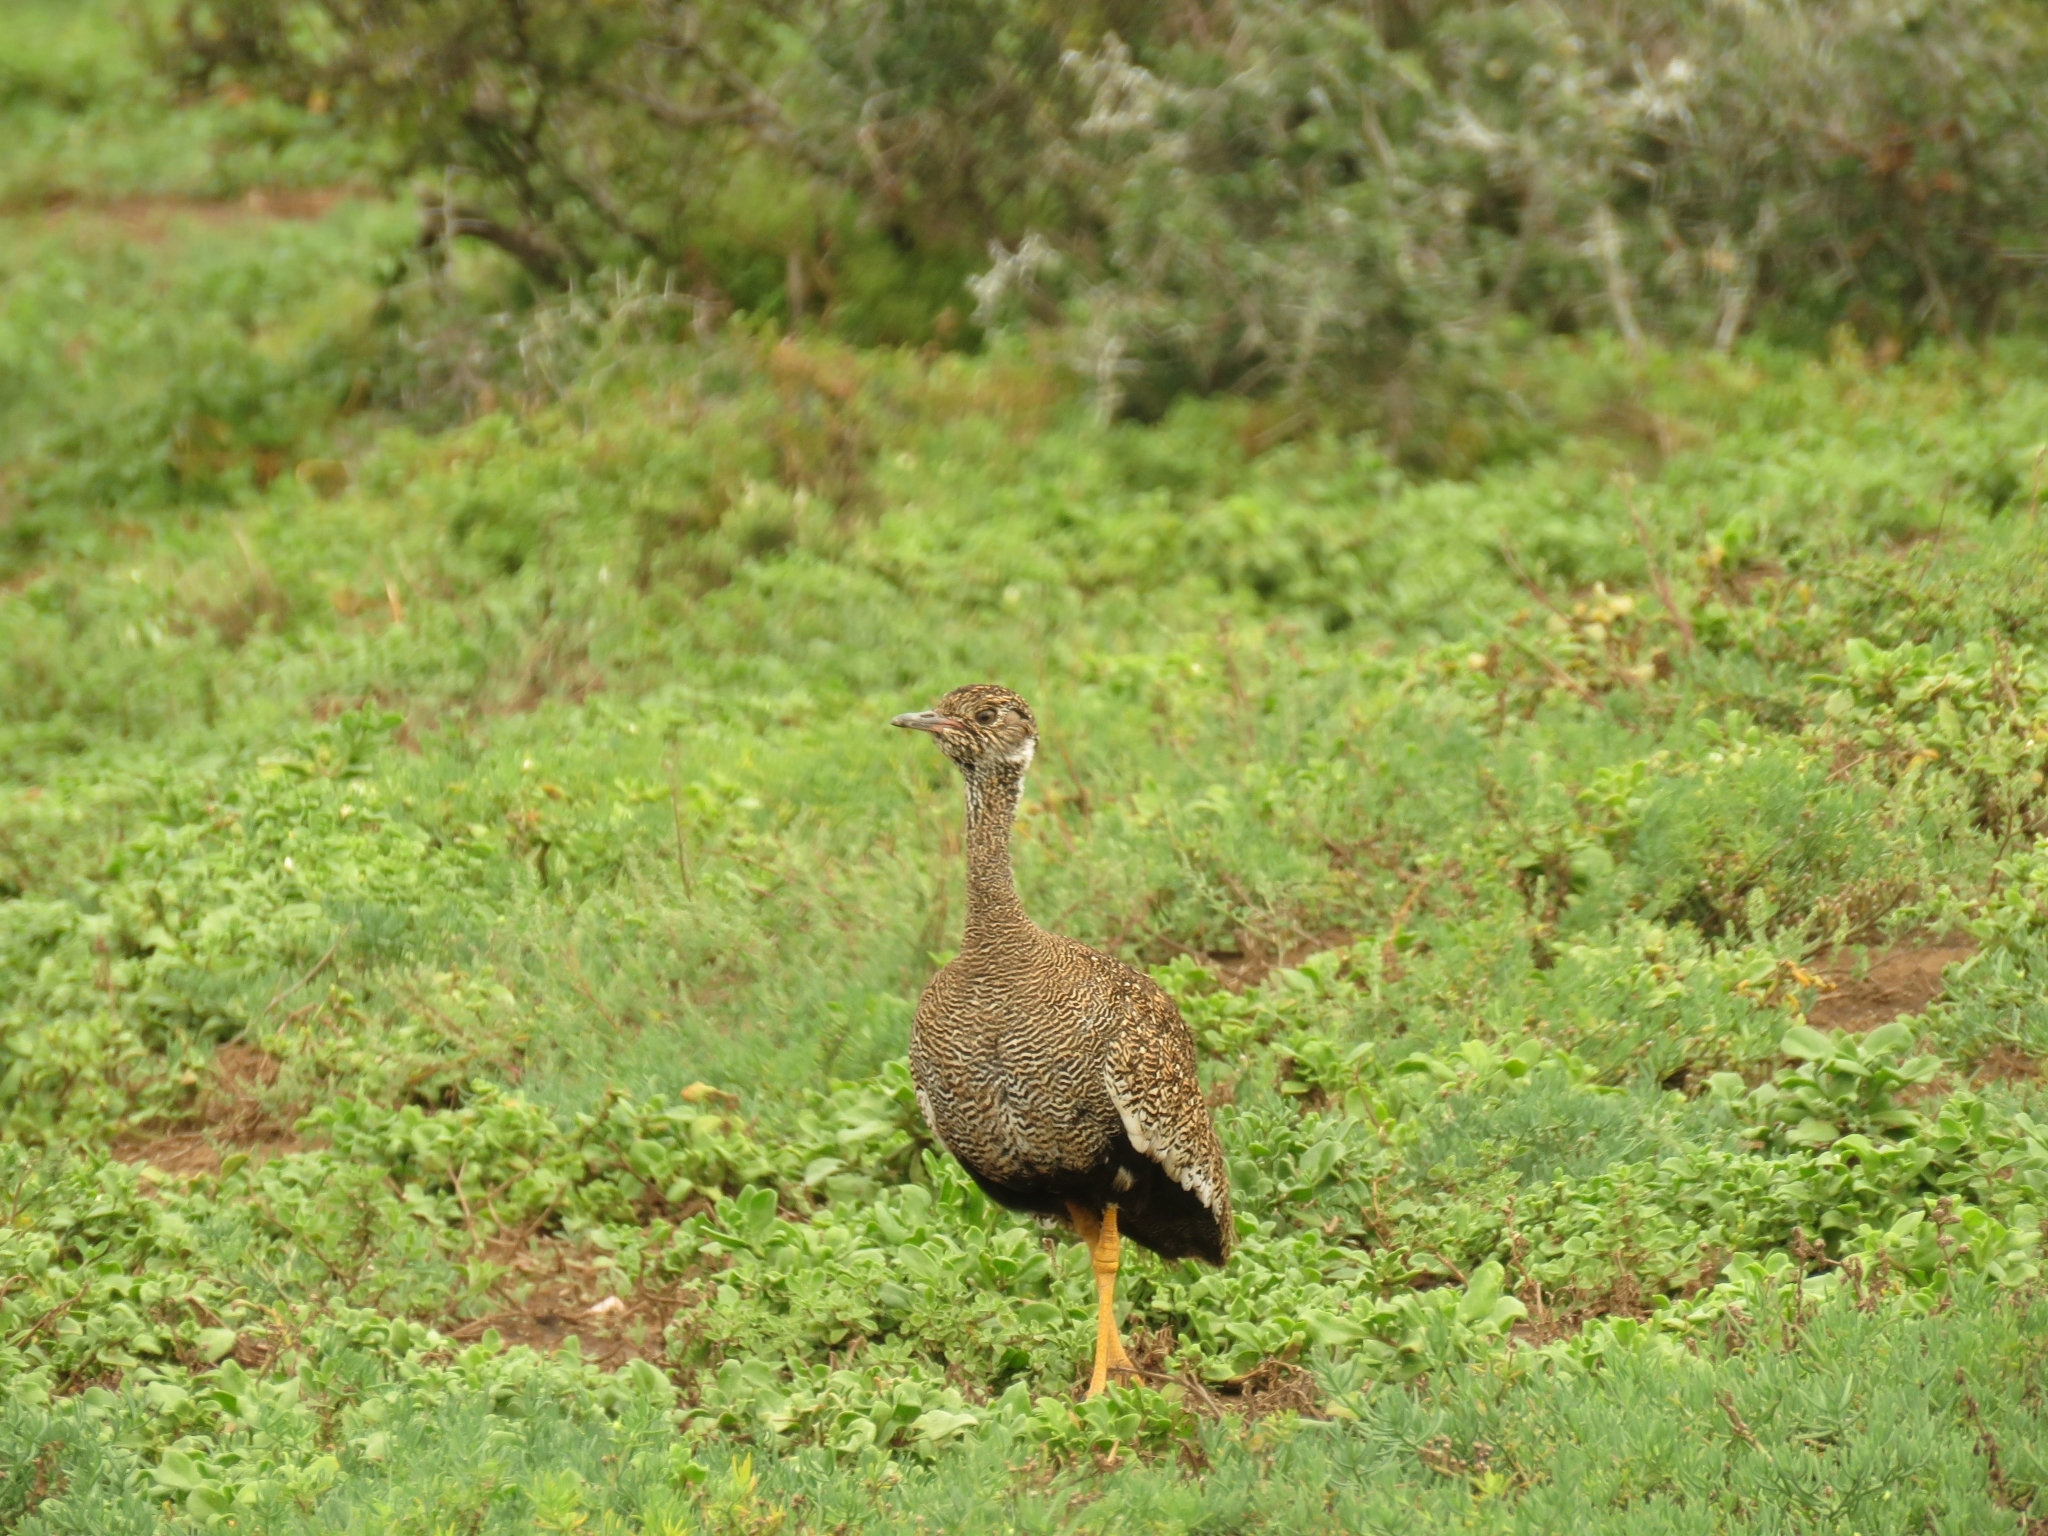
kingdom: Animalia
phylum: Chordata
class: Aves
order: Otidiformes
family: Otididae
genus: Afrotis
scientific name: Afrotis afra
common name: Southern black korhaan
